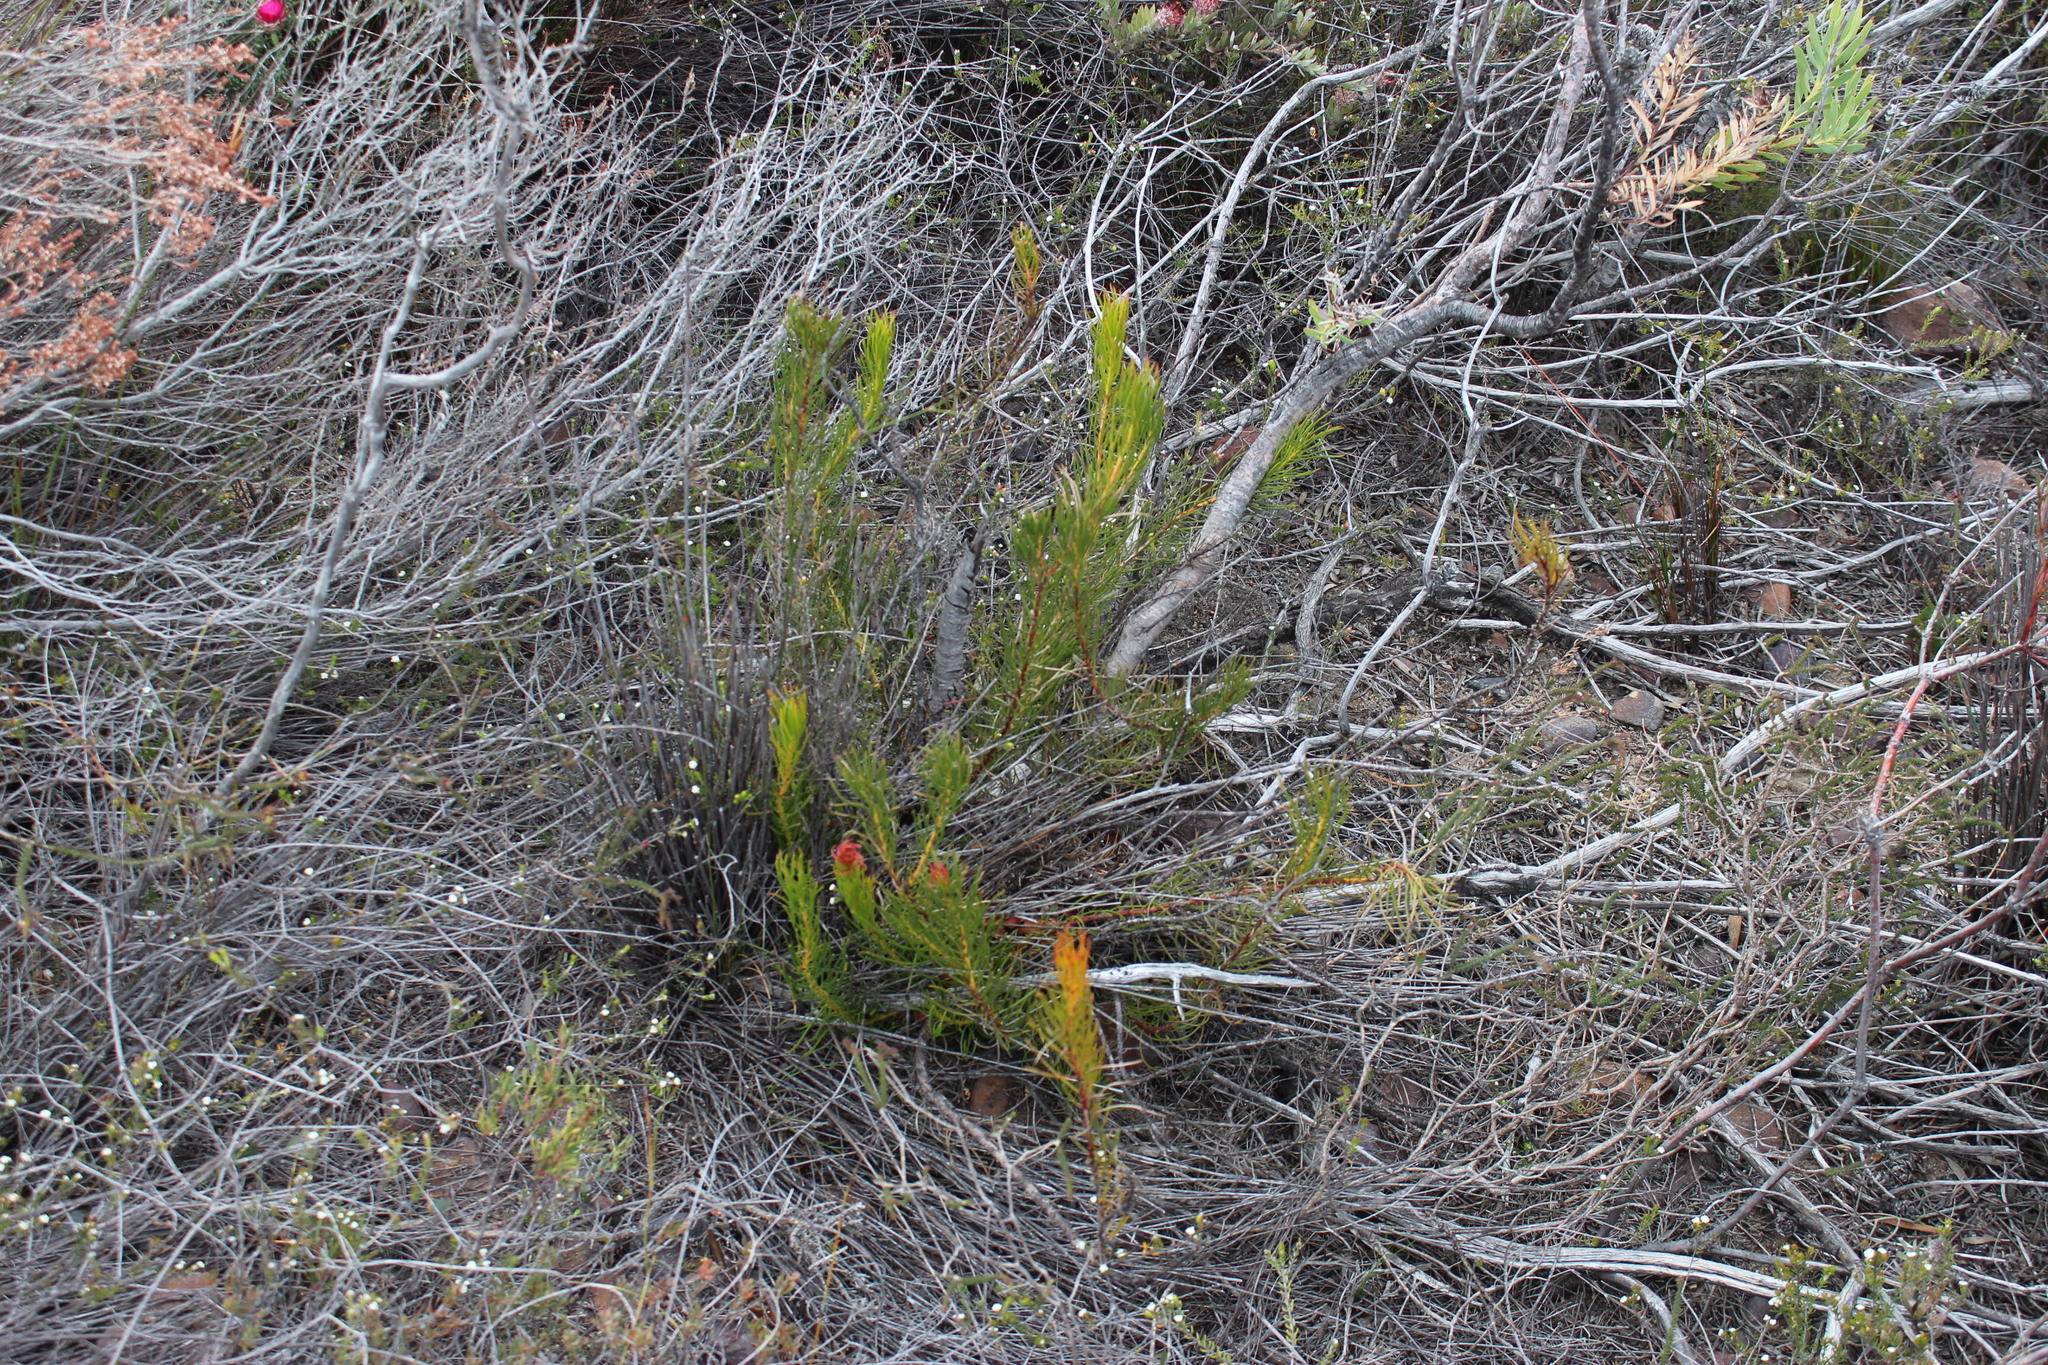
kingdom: Plantae
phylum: Tracheophyta
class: Magnoliopsida
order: Proteales
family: Proteaceae
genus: Protea
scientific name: Protea subulifolia
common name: Awl-leaf sugarbush
